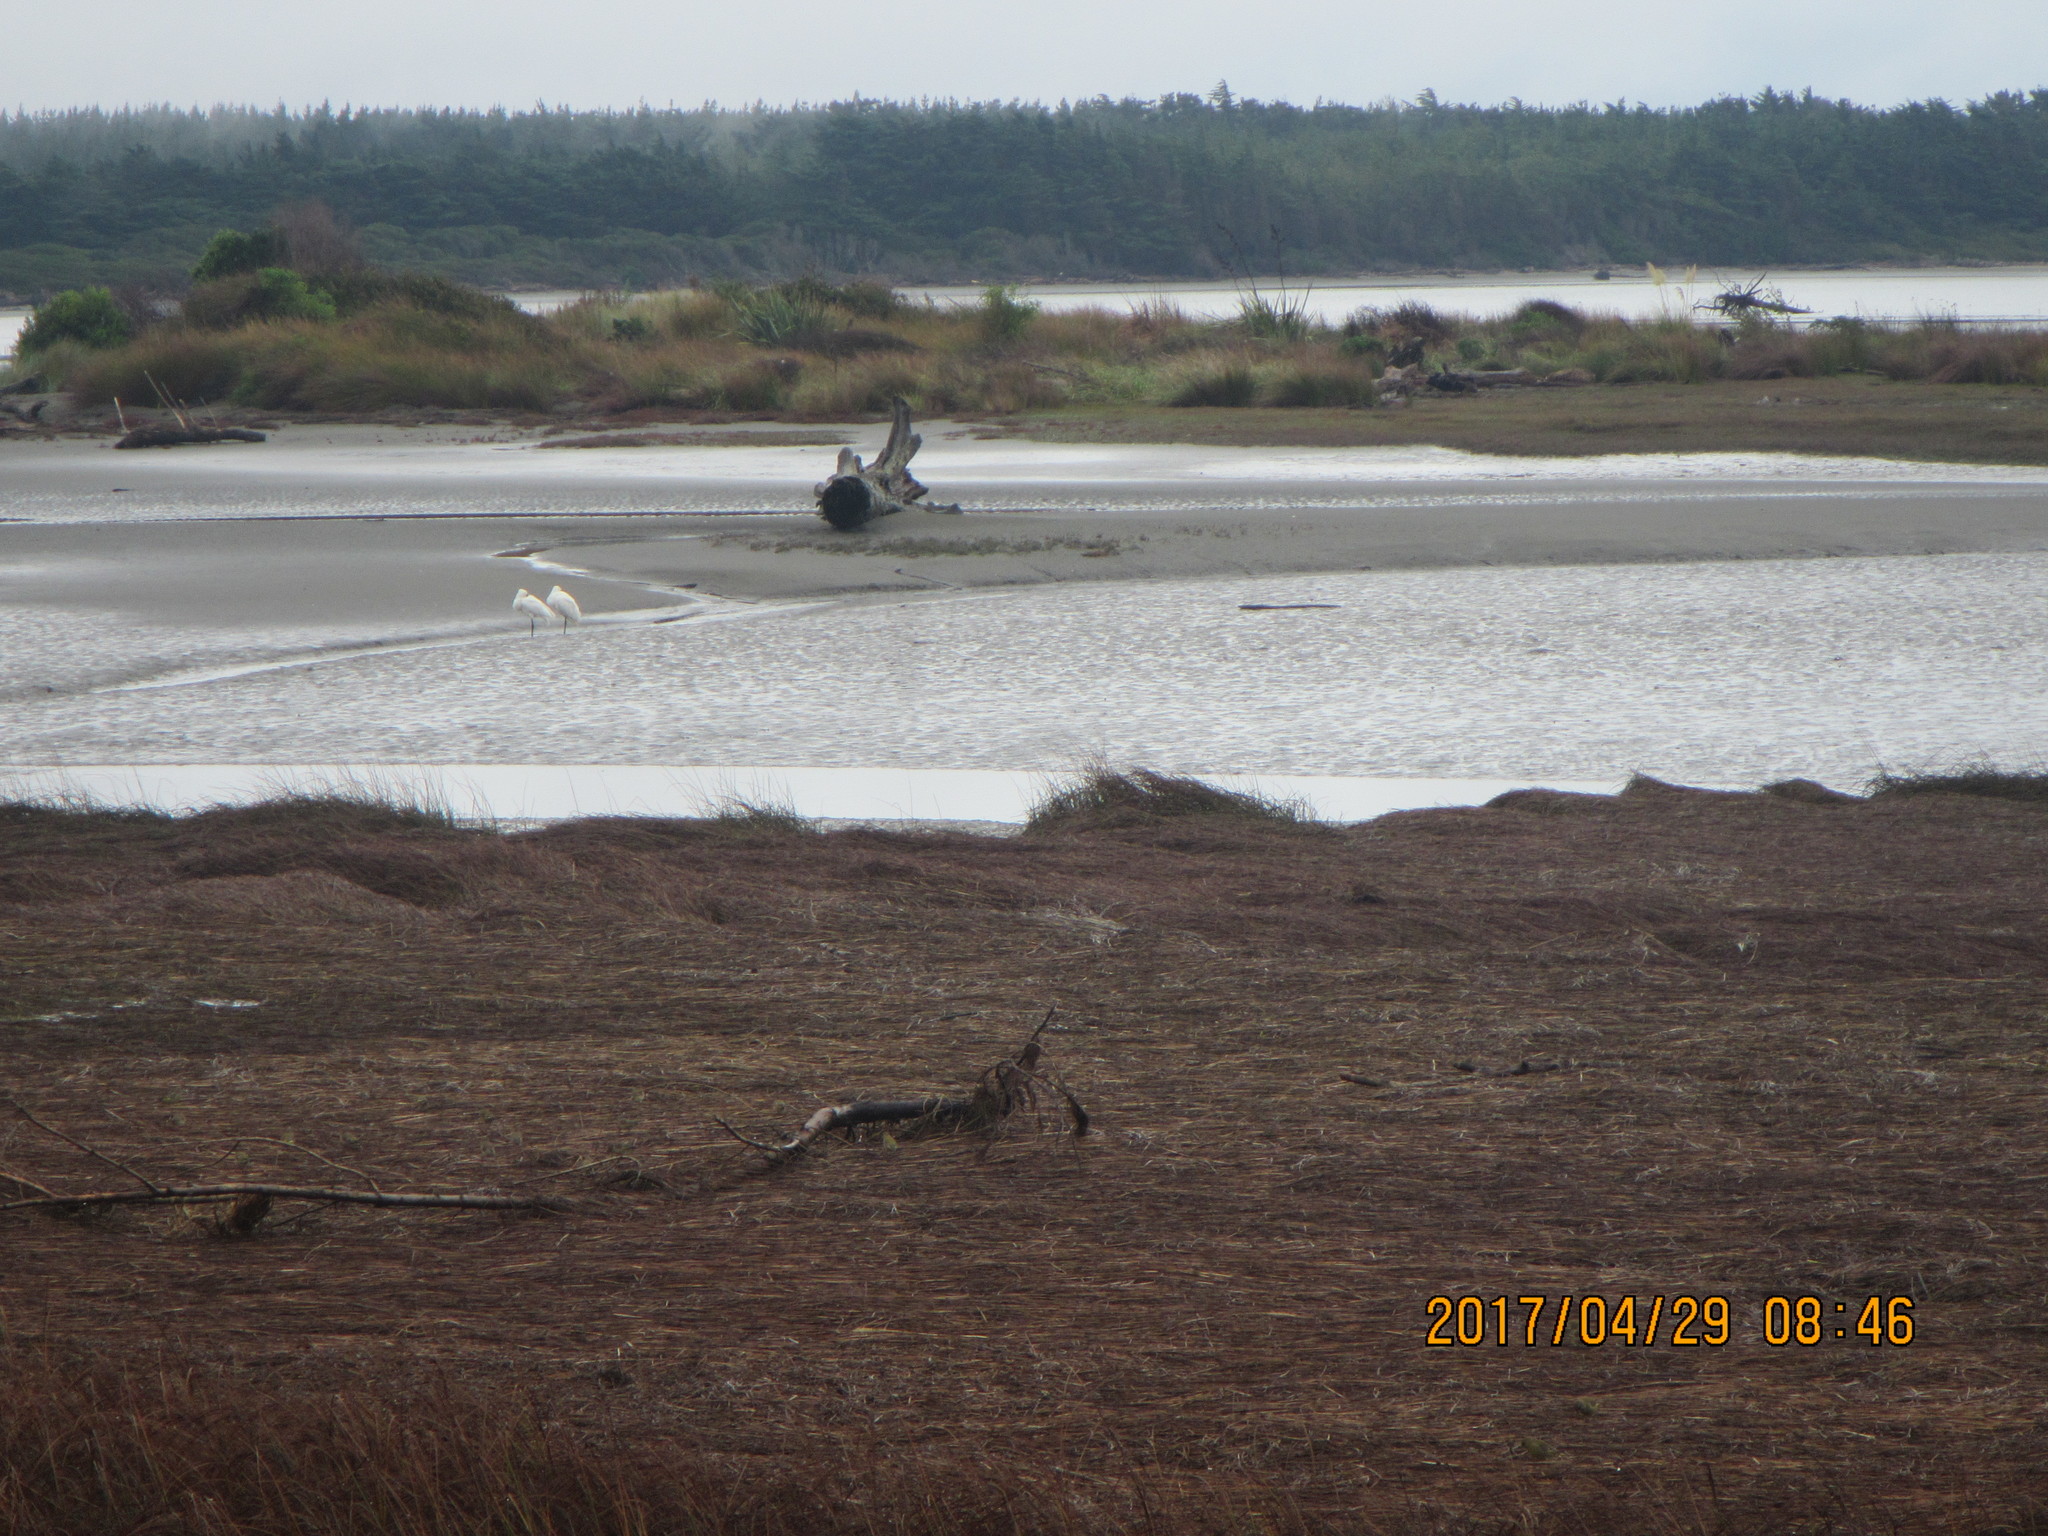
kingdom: Animalia
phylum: Chordata
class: Aves
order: Pelecaniformes
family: Threskiornithidae
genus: Platalea
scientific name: Platalea regia
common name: Royal spoonbill
